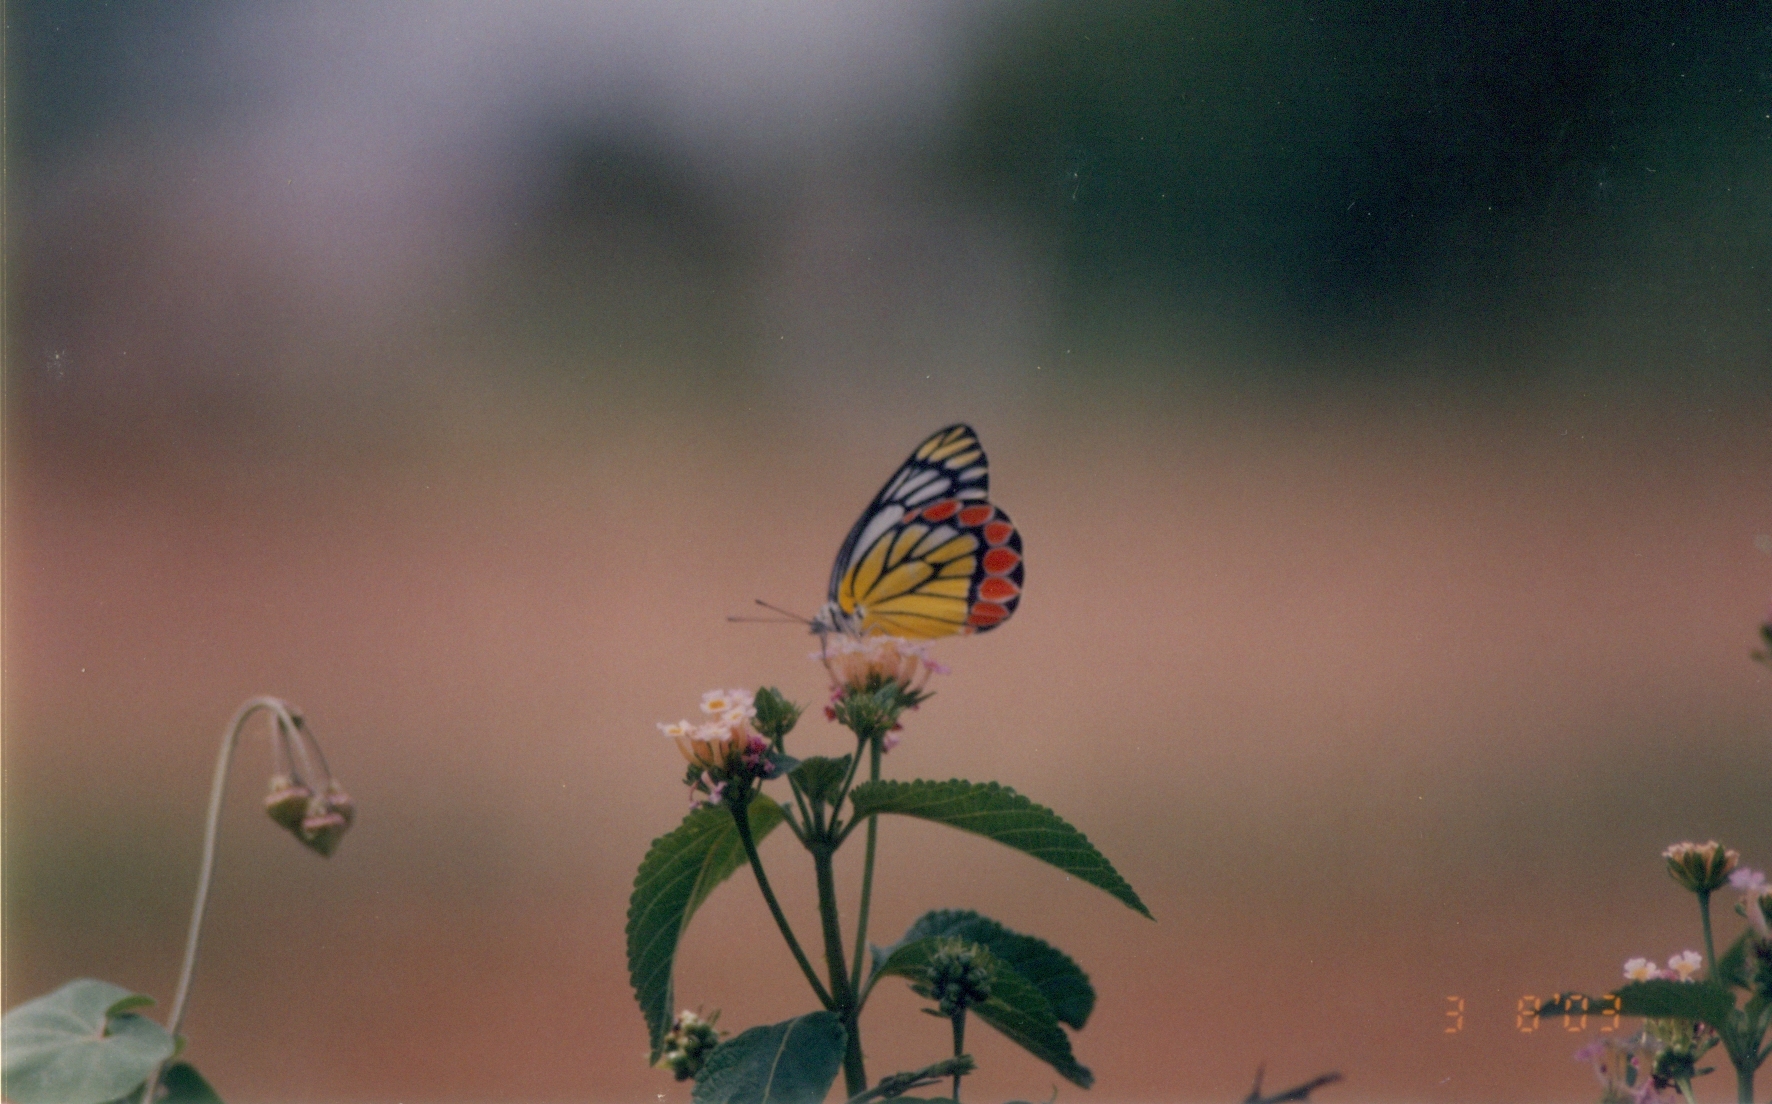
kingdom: Animalia
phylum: Arthropoda
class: Insecta
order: Lepidoptera
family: Pieridae
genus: Delias
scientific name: Delias eucharis
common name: Common jezebel
